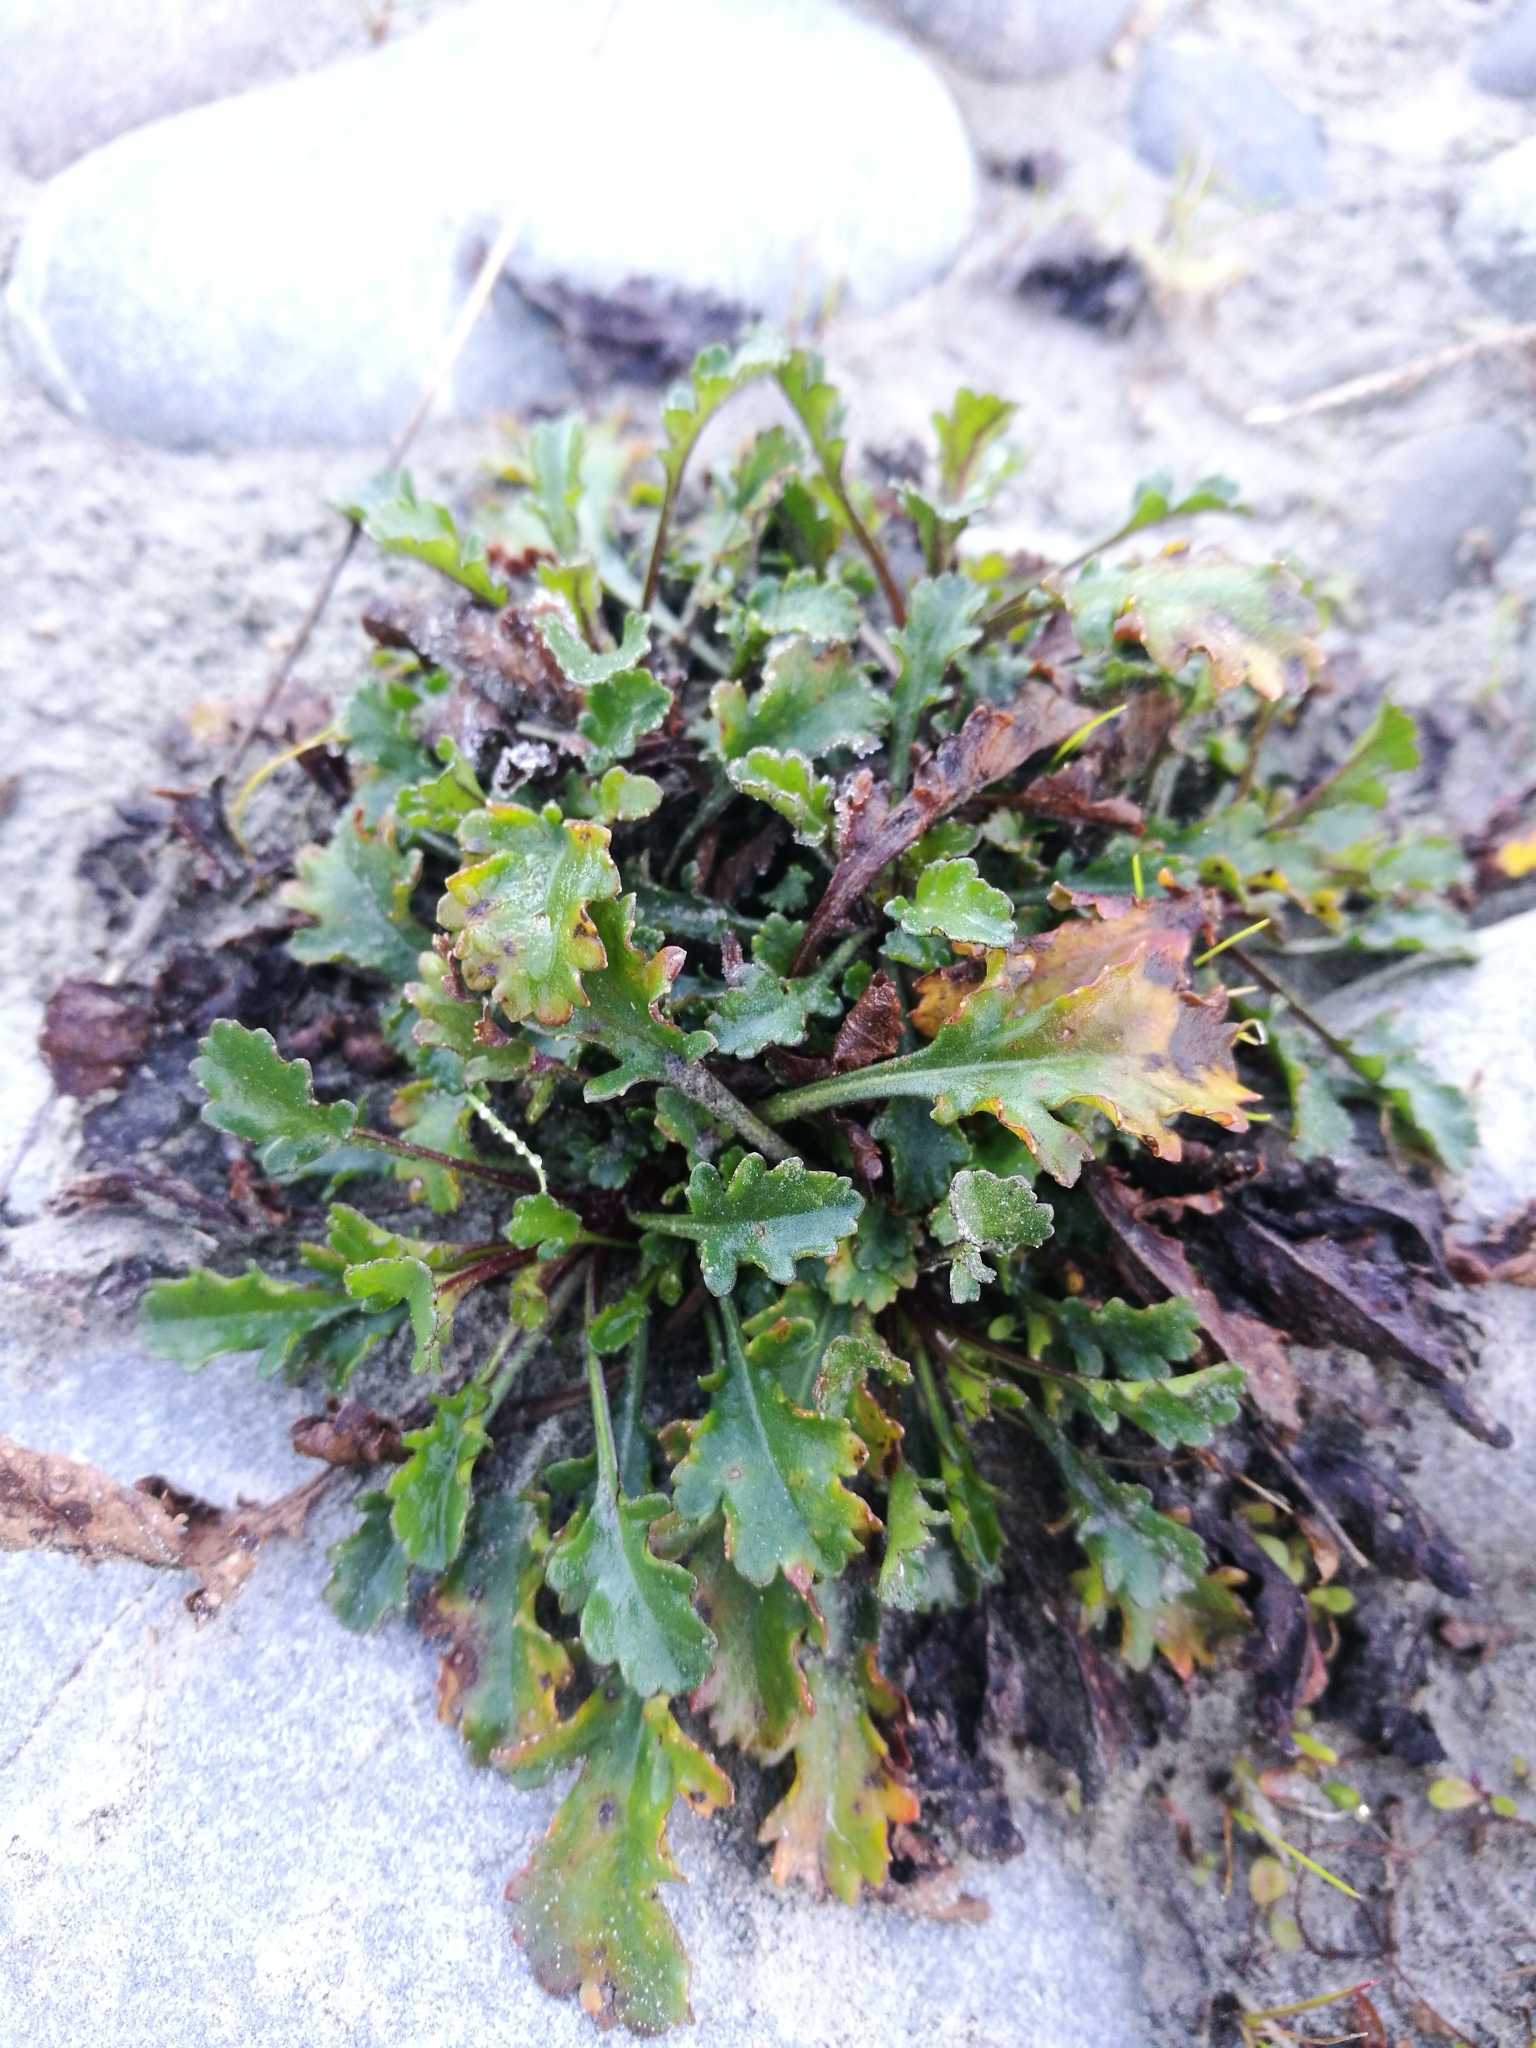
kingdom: Plantae
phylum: Tracheophyta
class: Magnoliopsida
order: Asterales
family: Asteraceae
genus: Leucanthemum
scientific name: Leucanthemum vulgare
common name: Oxeye daisy
